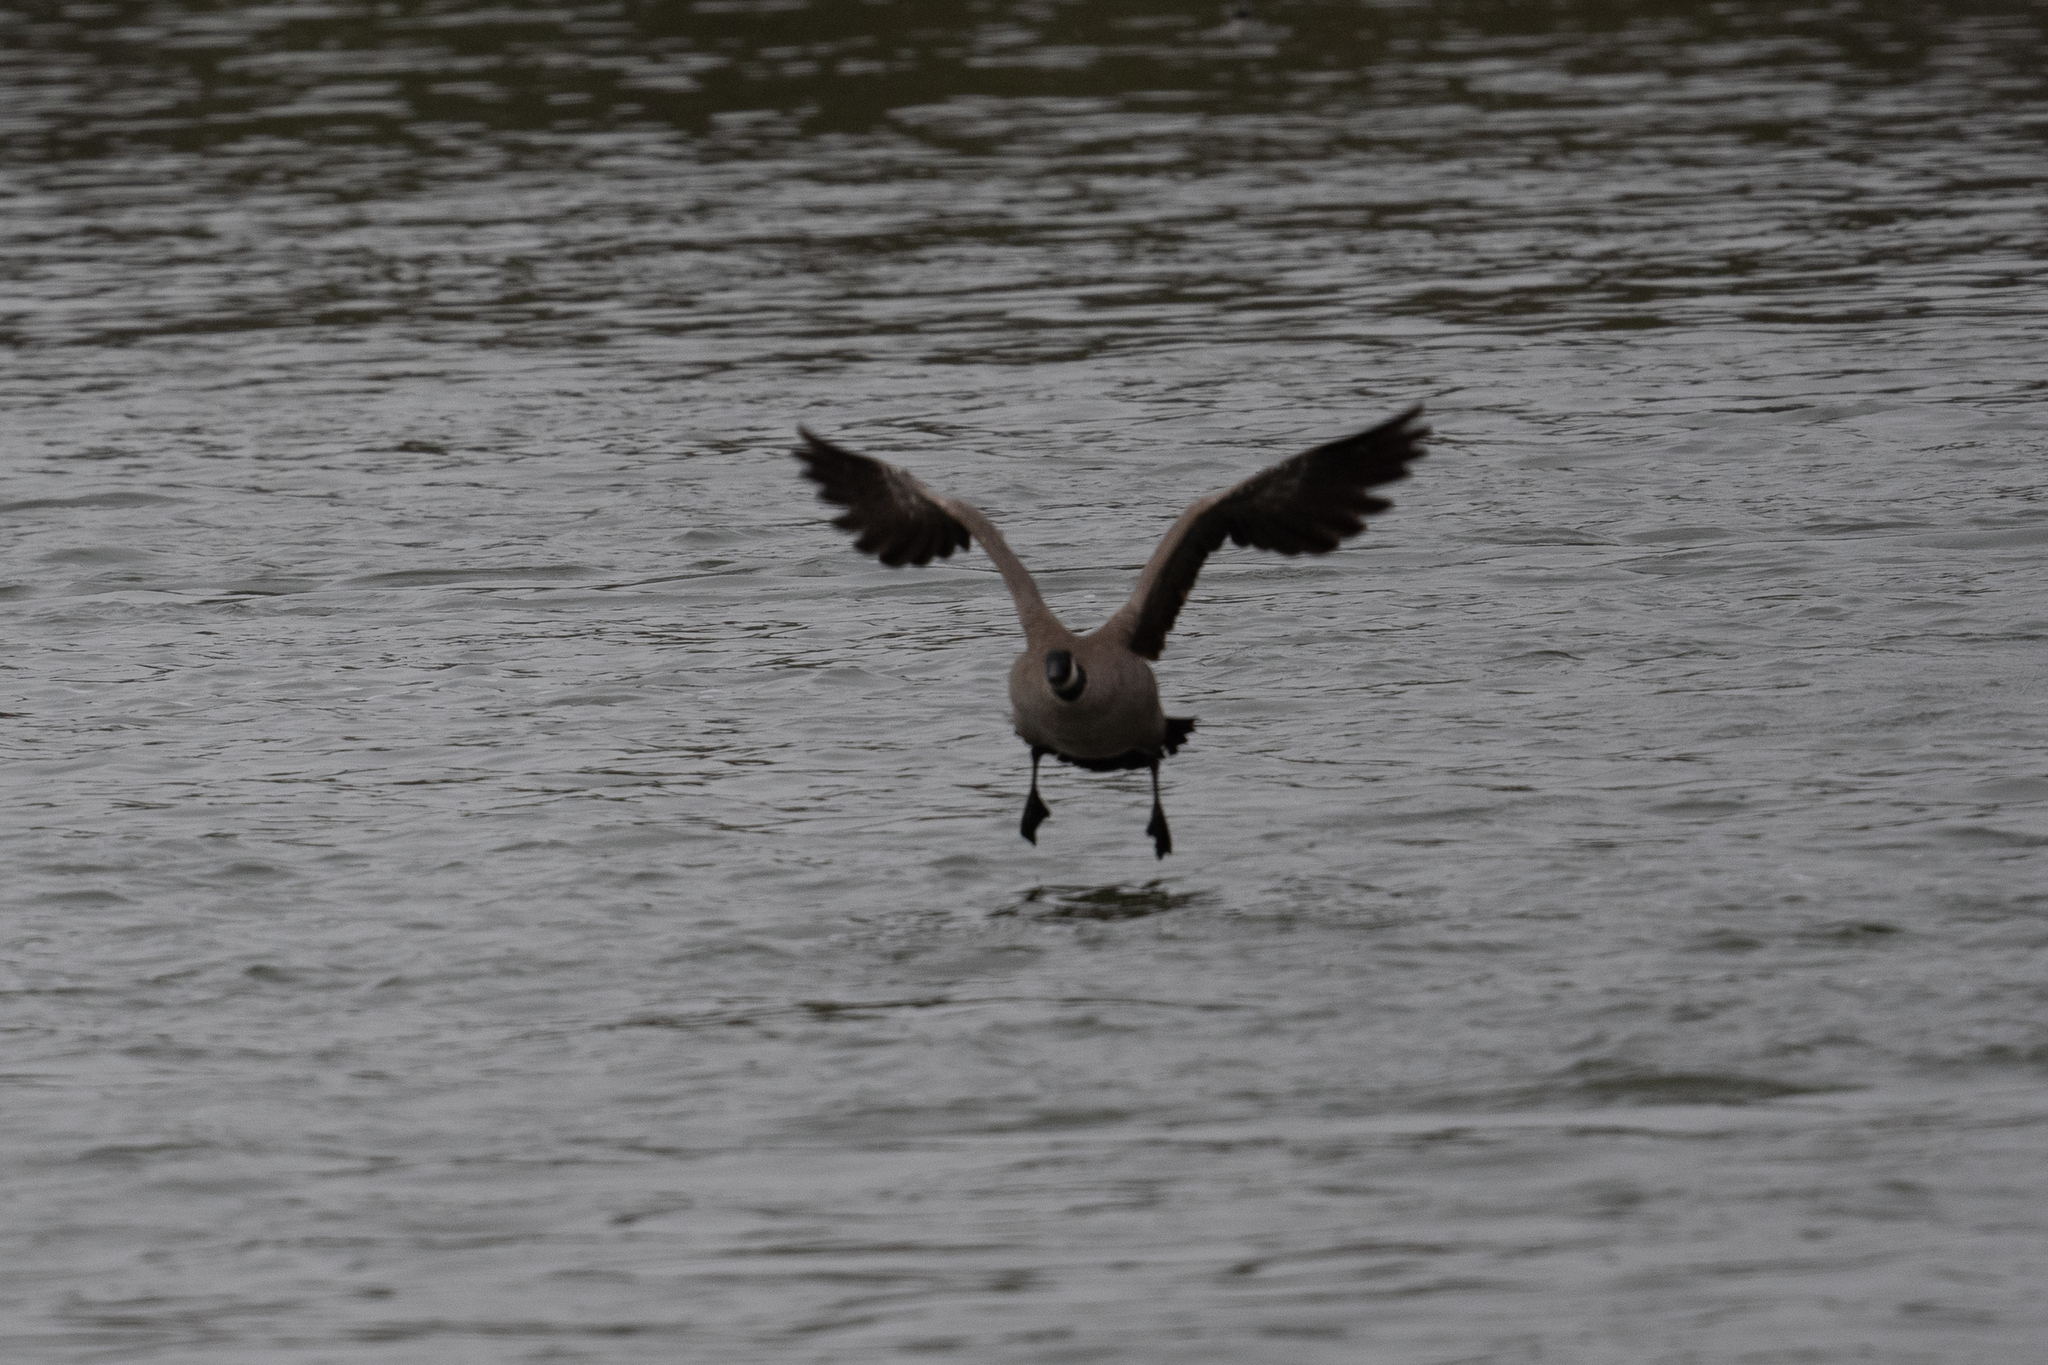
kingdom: Animalia
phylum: Chordata
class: Aves
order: Anseriformes
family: Anatidae
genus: Branta
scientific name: Branta canadensis
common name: Canada goose
